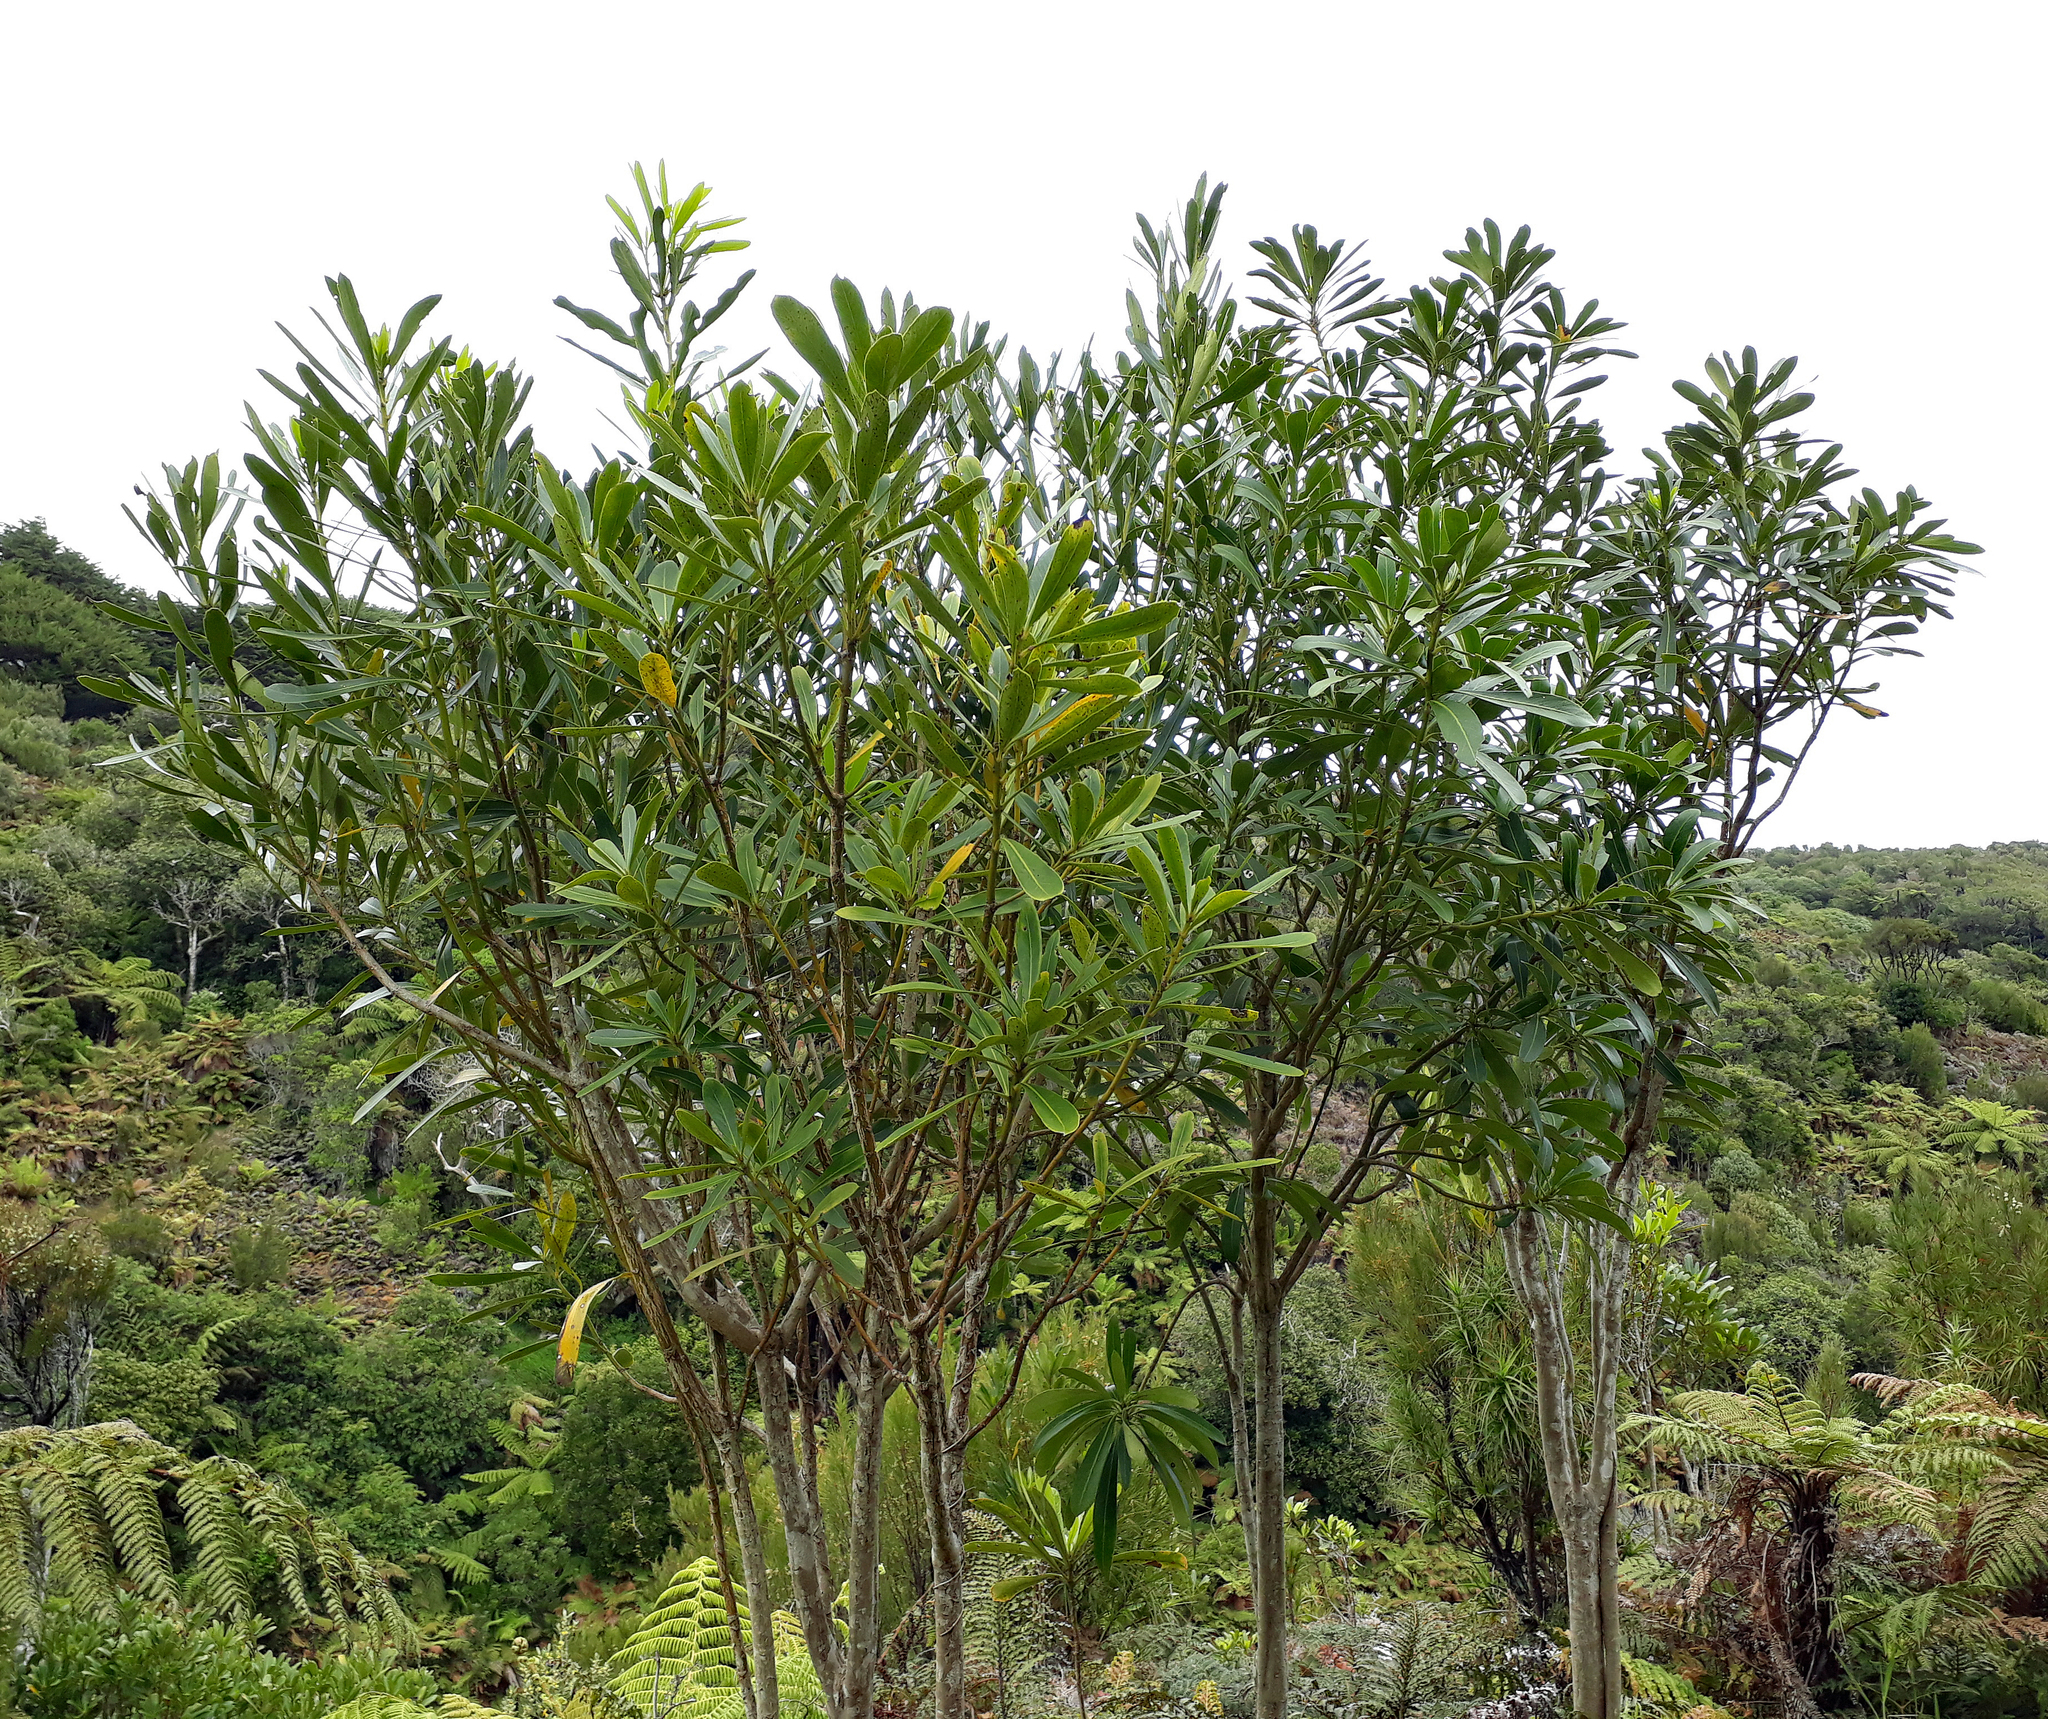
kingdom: Plantae
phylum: Tracheophyta
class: Magnoliopsida
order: Apiales
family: Araliaceae
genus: Pseudopanax
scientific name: Pseudopanax chathamicus
